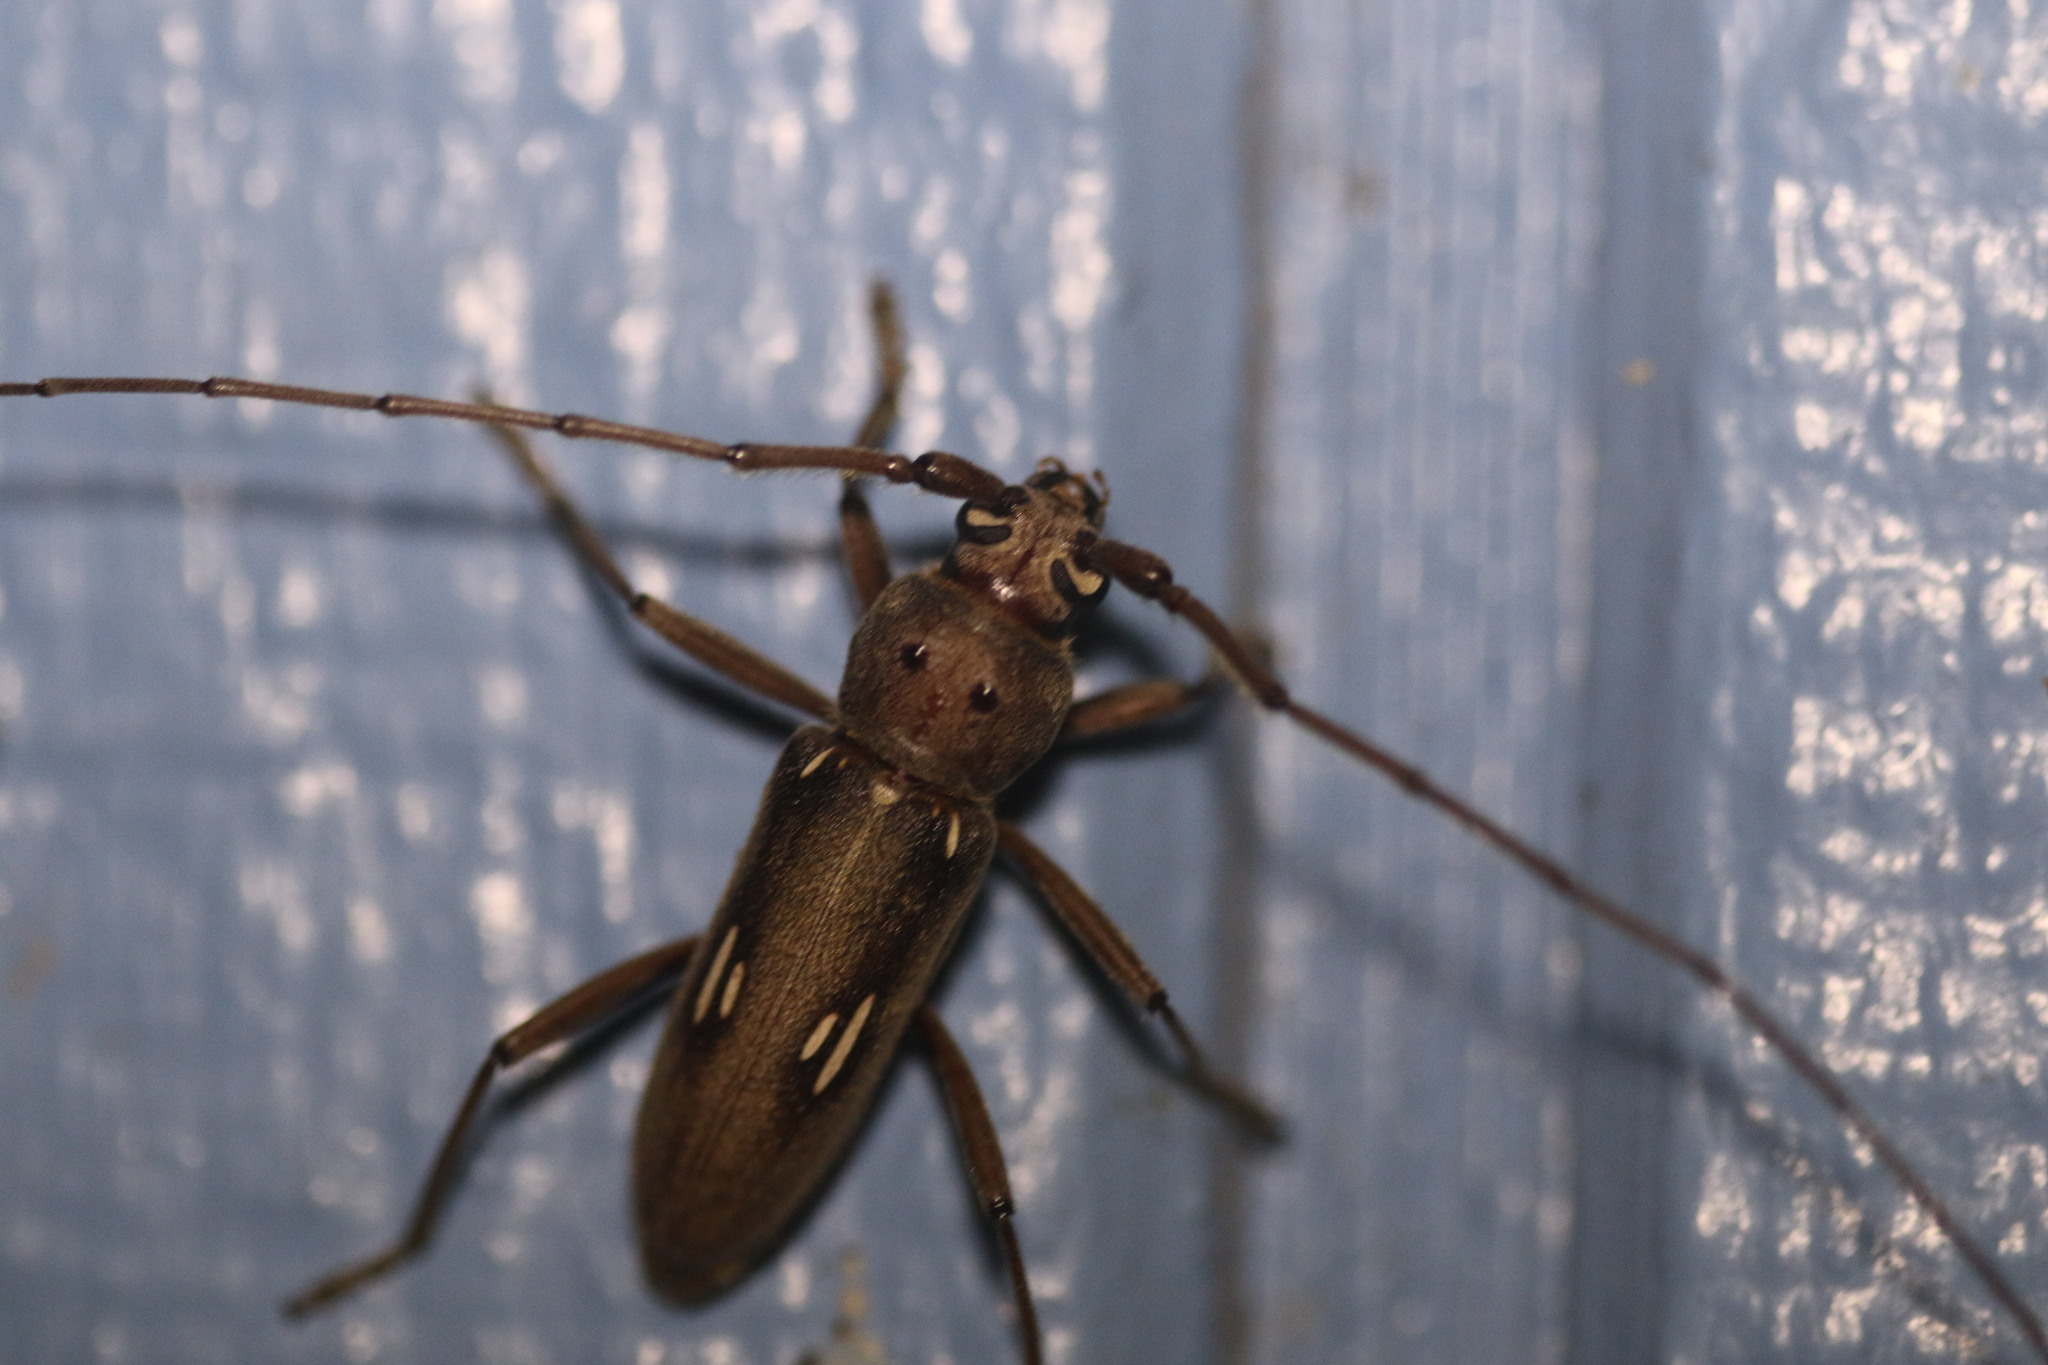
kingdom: Animalia
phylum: Arthropoda
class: Insecta
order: Coleoptera
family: Cerambycidae
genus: Eburia
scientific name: Eburia ovicollis
